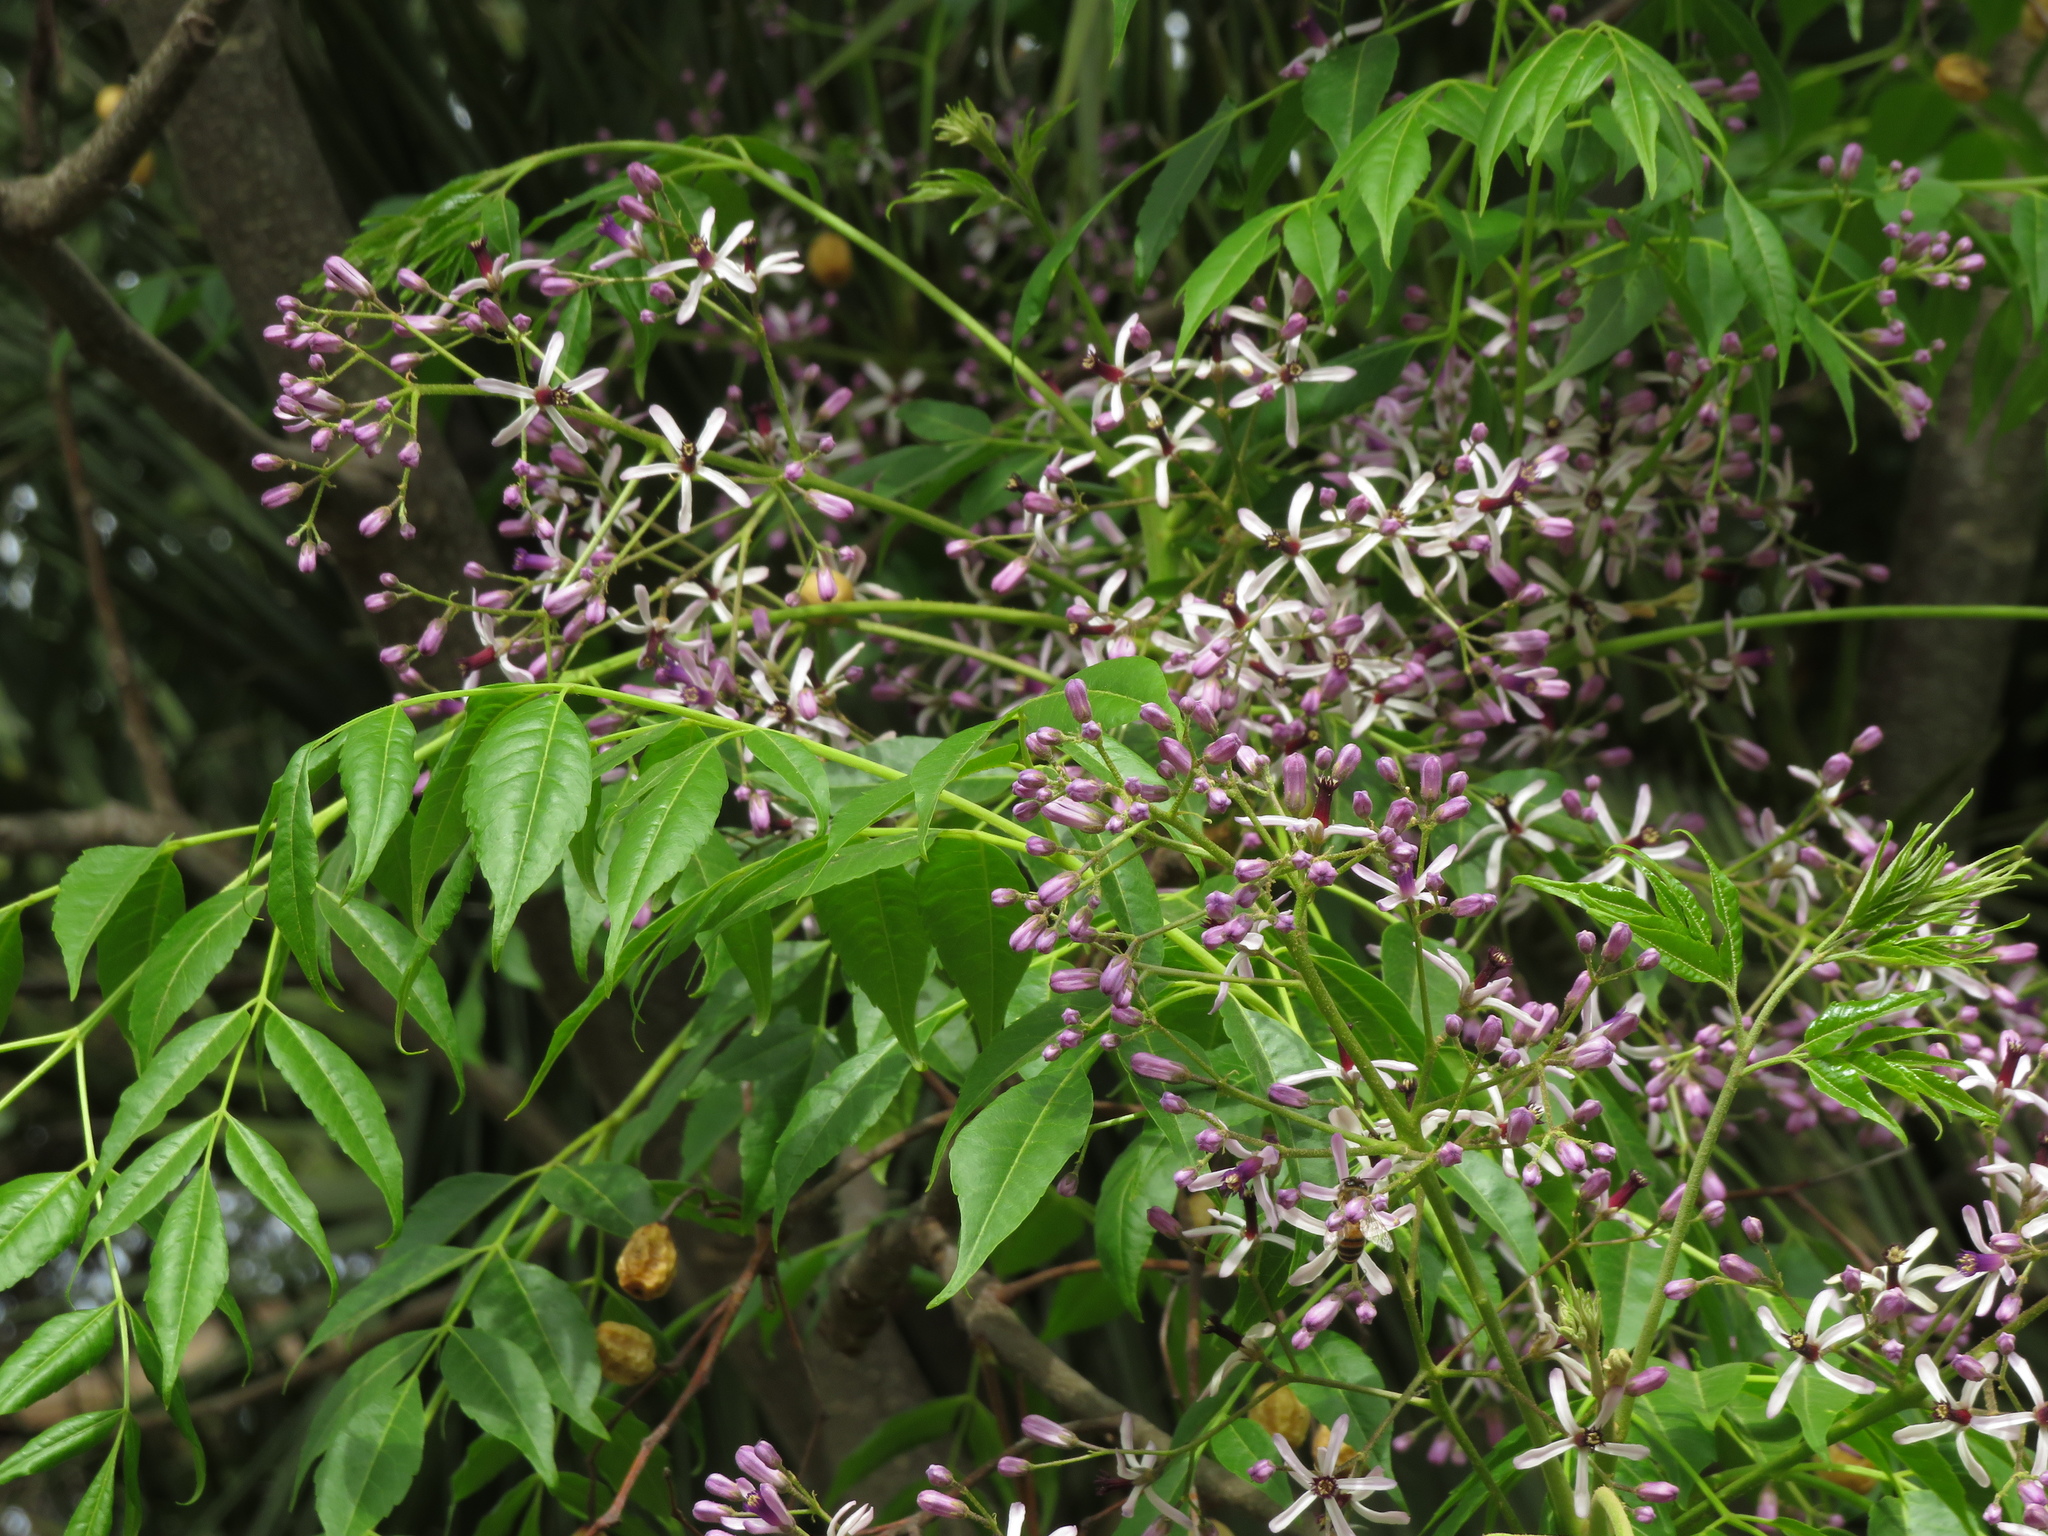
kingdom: Plantae
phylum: Tracheophyta
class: Magnoliopsida
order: Sapindales
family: Meliaceae
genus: Melia
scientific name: Melia azedarach
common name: Chinaberrytree
